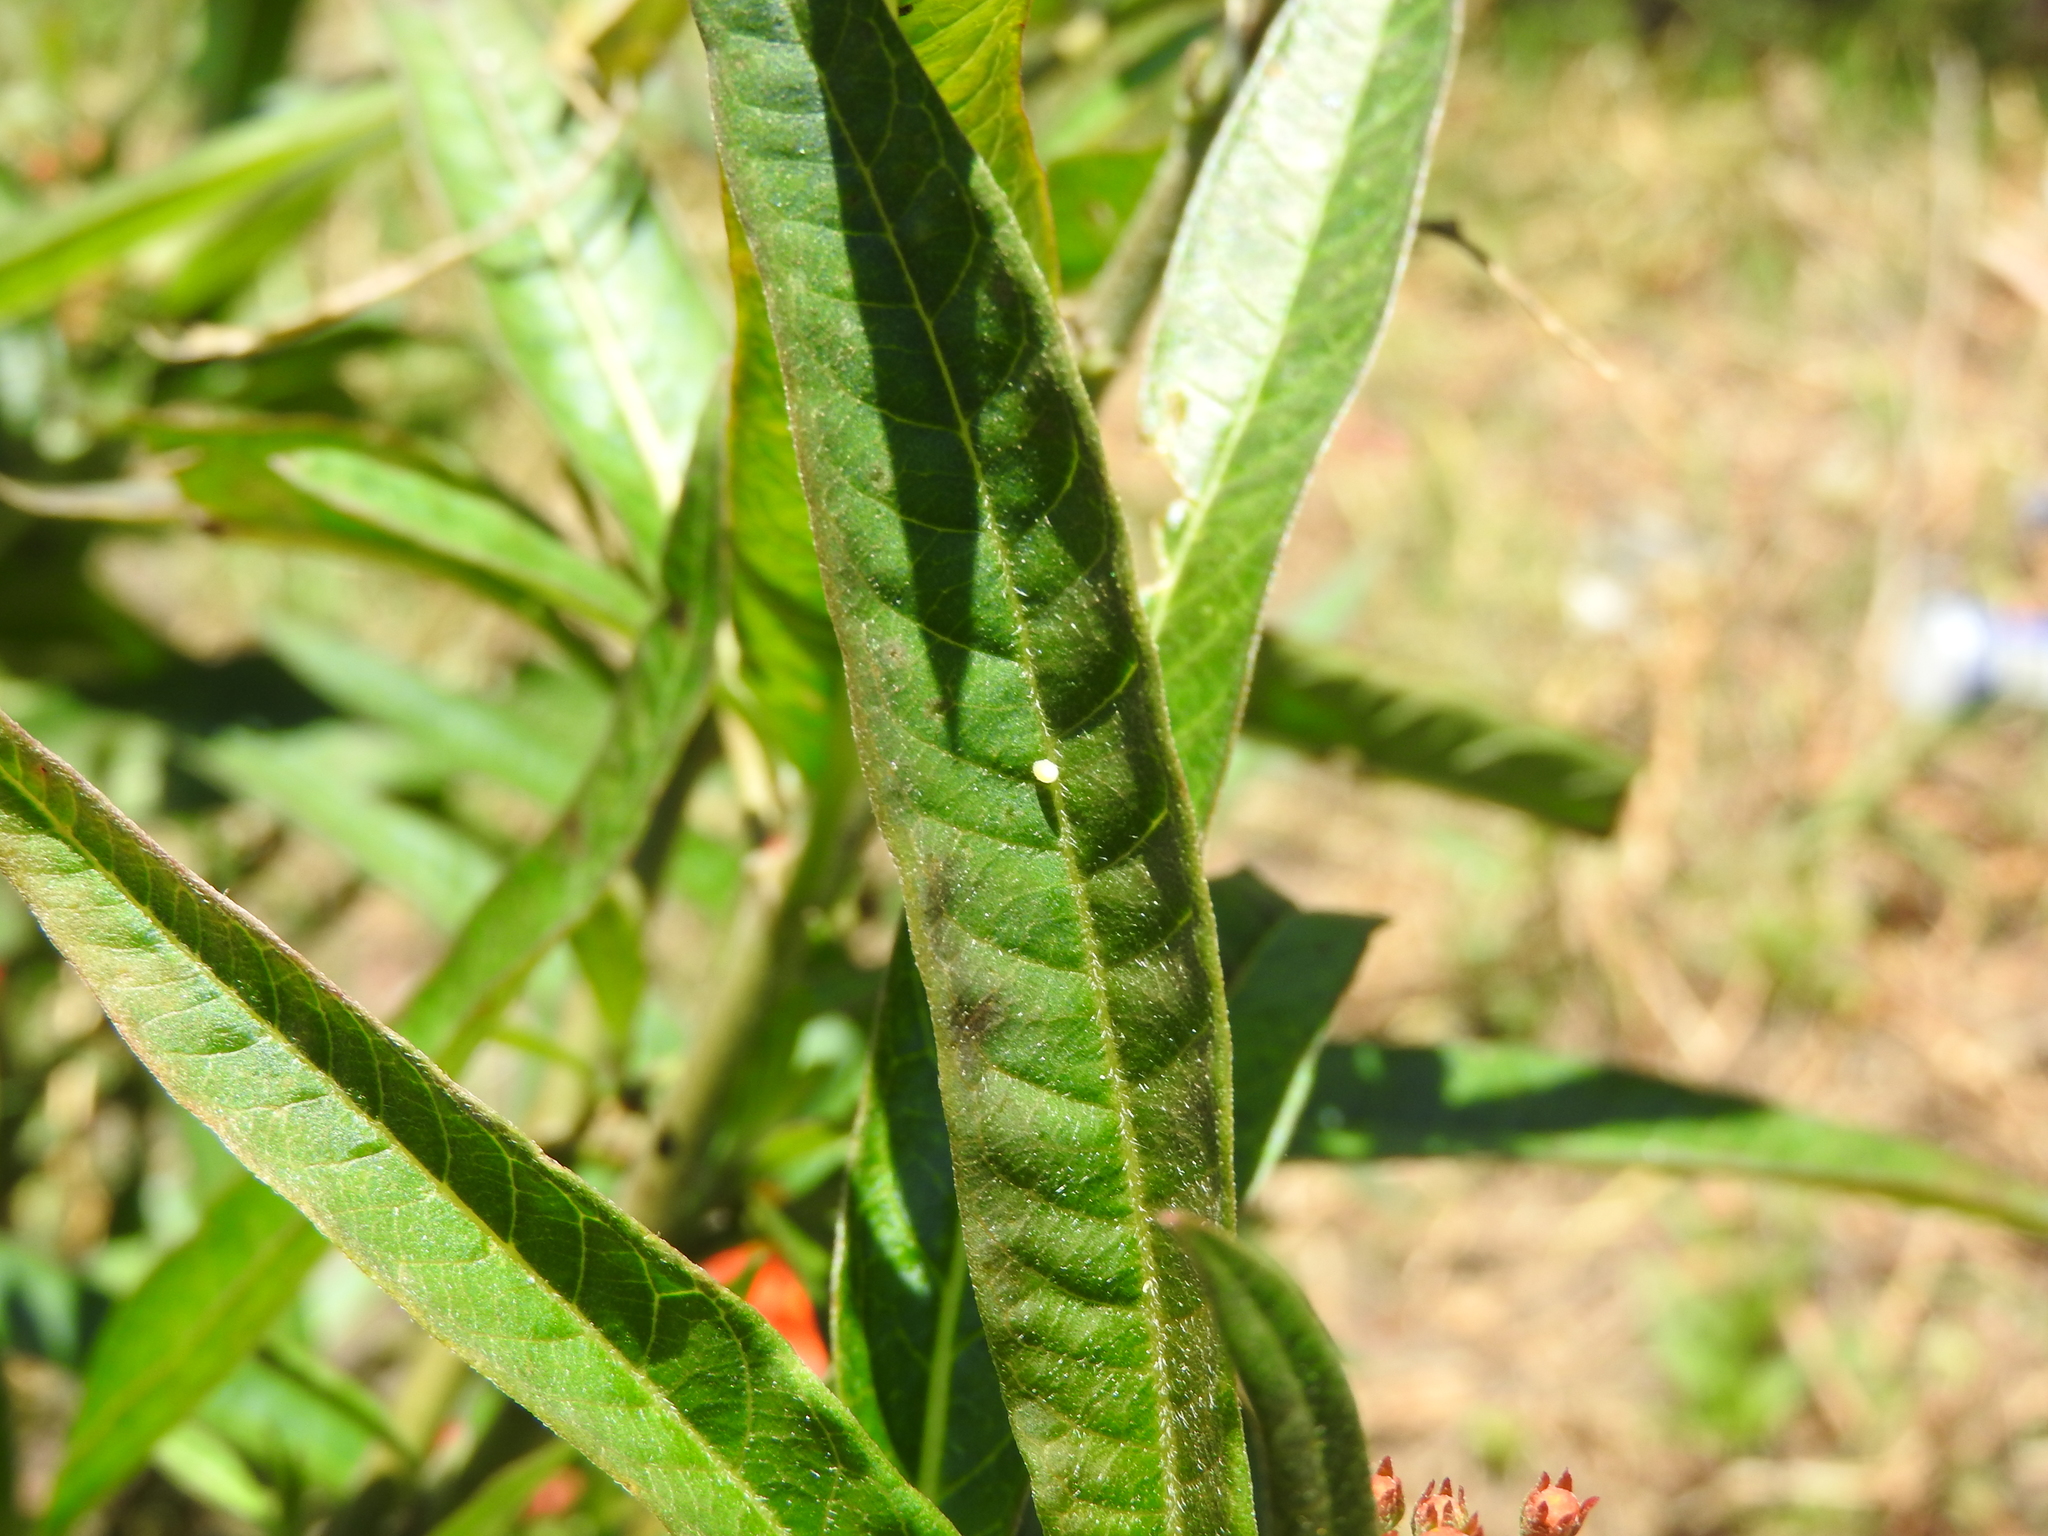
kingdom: Animalia
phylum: Arthropoda
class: Insecta
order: Lepidoptera
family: Nymphalidae
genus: Danaus
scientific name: Danaus plexippus
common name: Monarch
